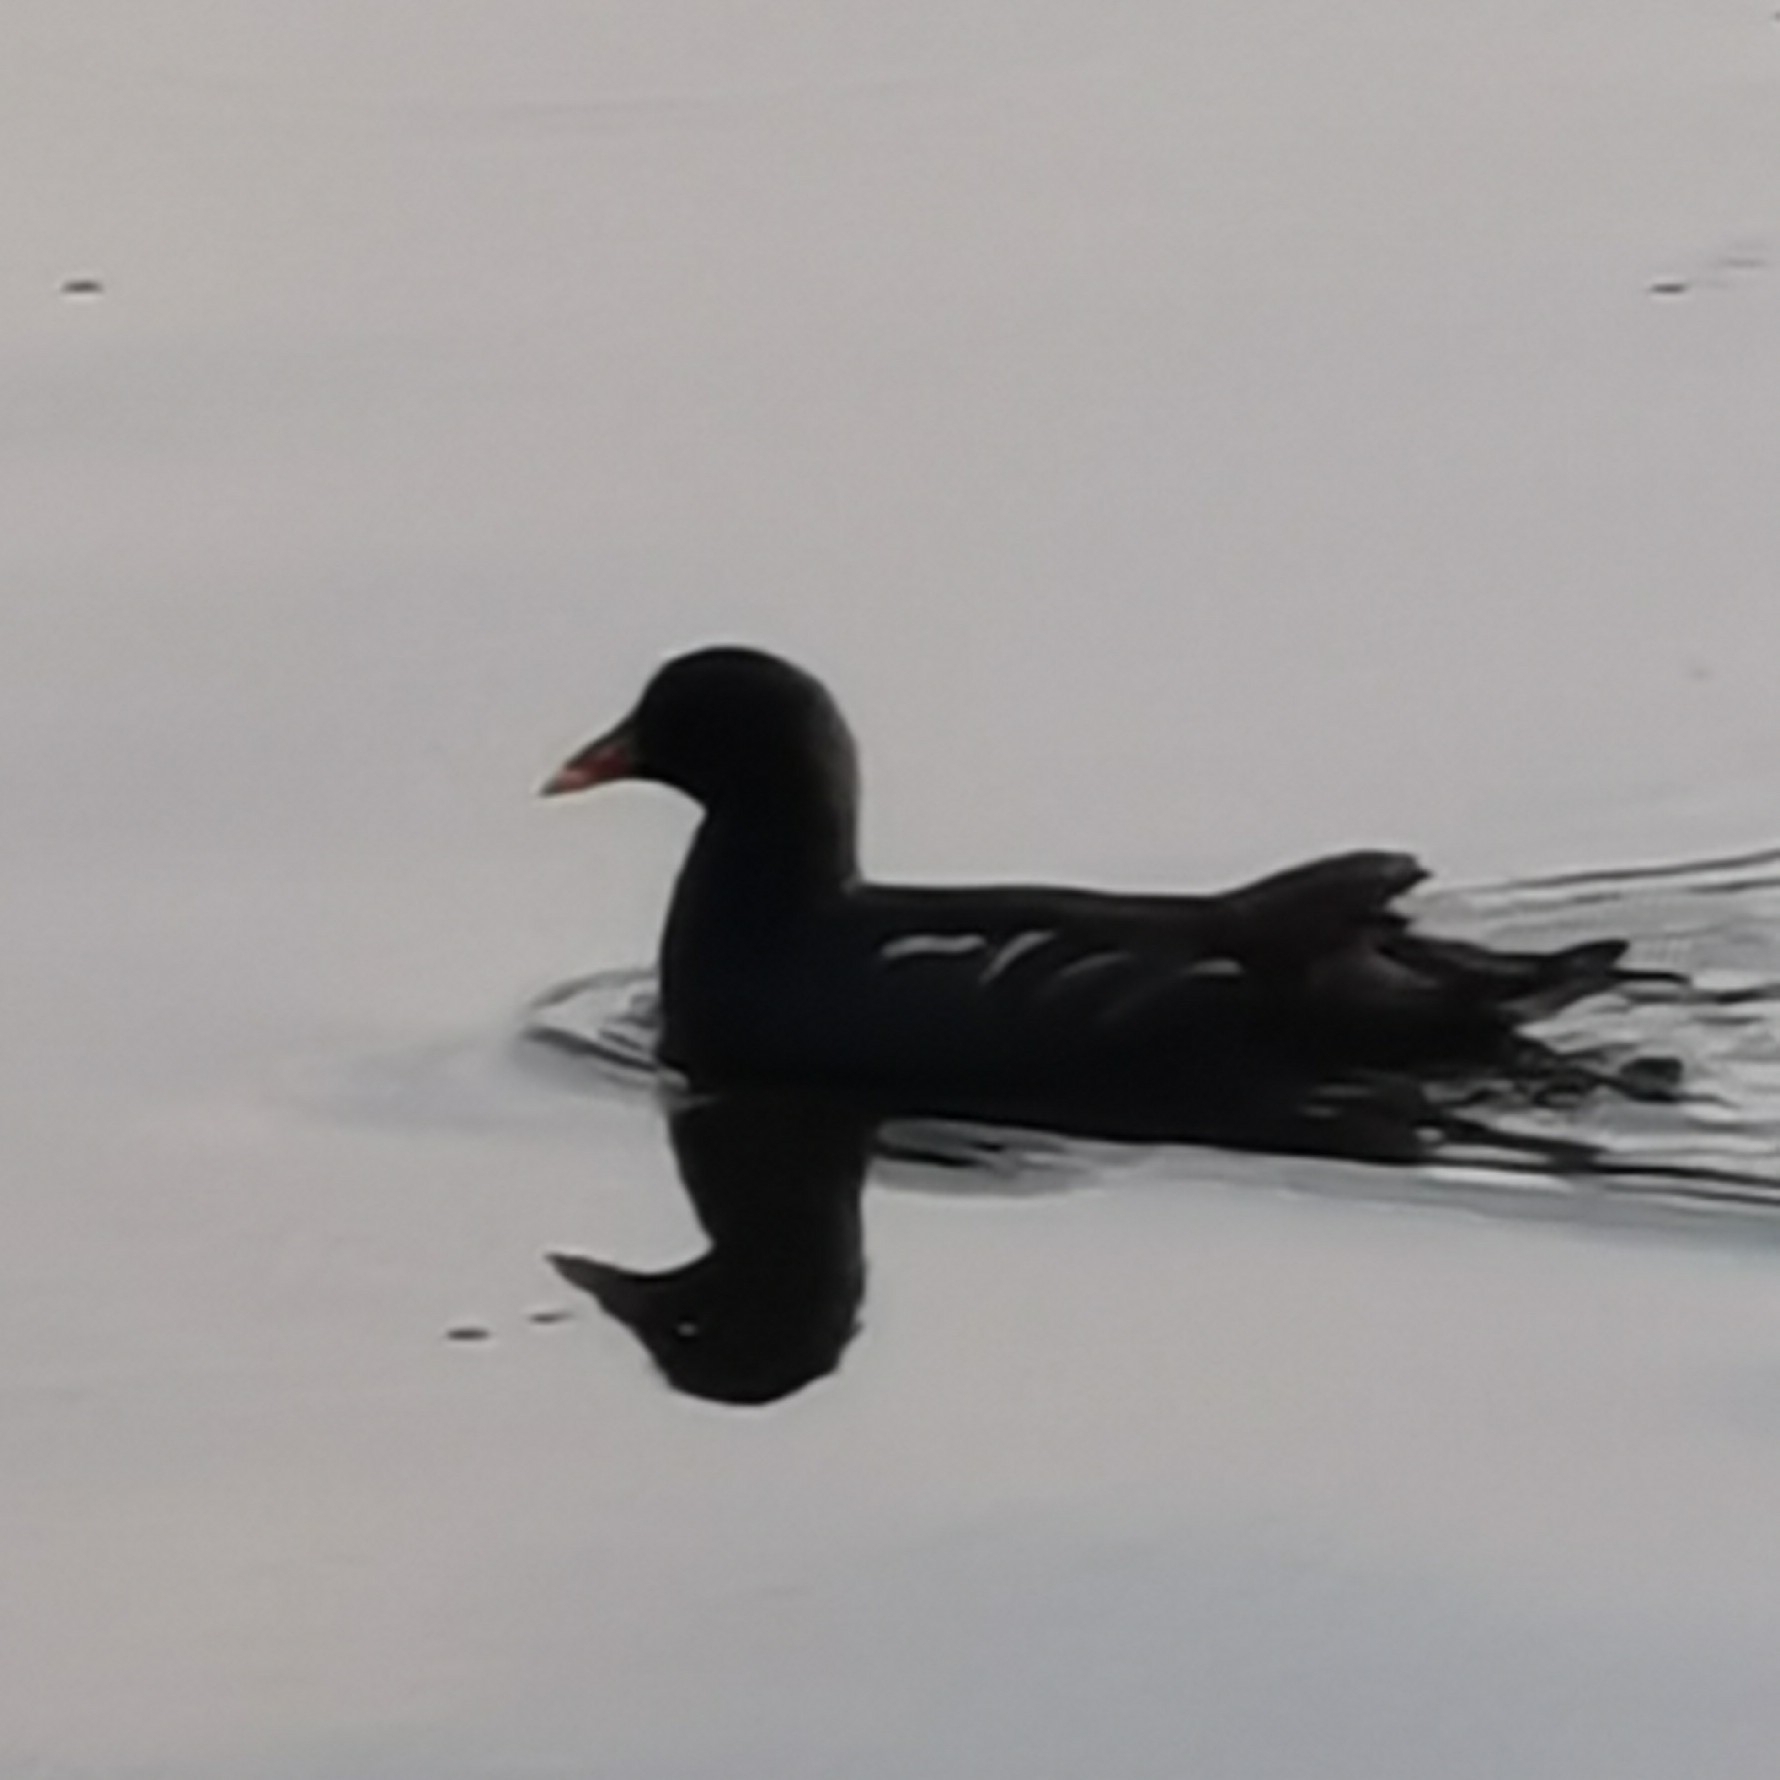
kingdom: Animalia
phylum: Chordata
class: Aves
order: Gruiformes
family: Rallidae
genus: Gallinula
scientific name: Gallinula chloropus
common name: Common moorhen
